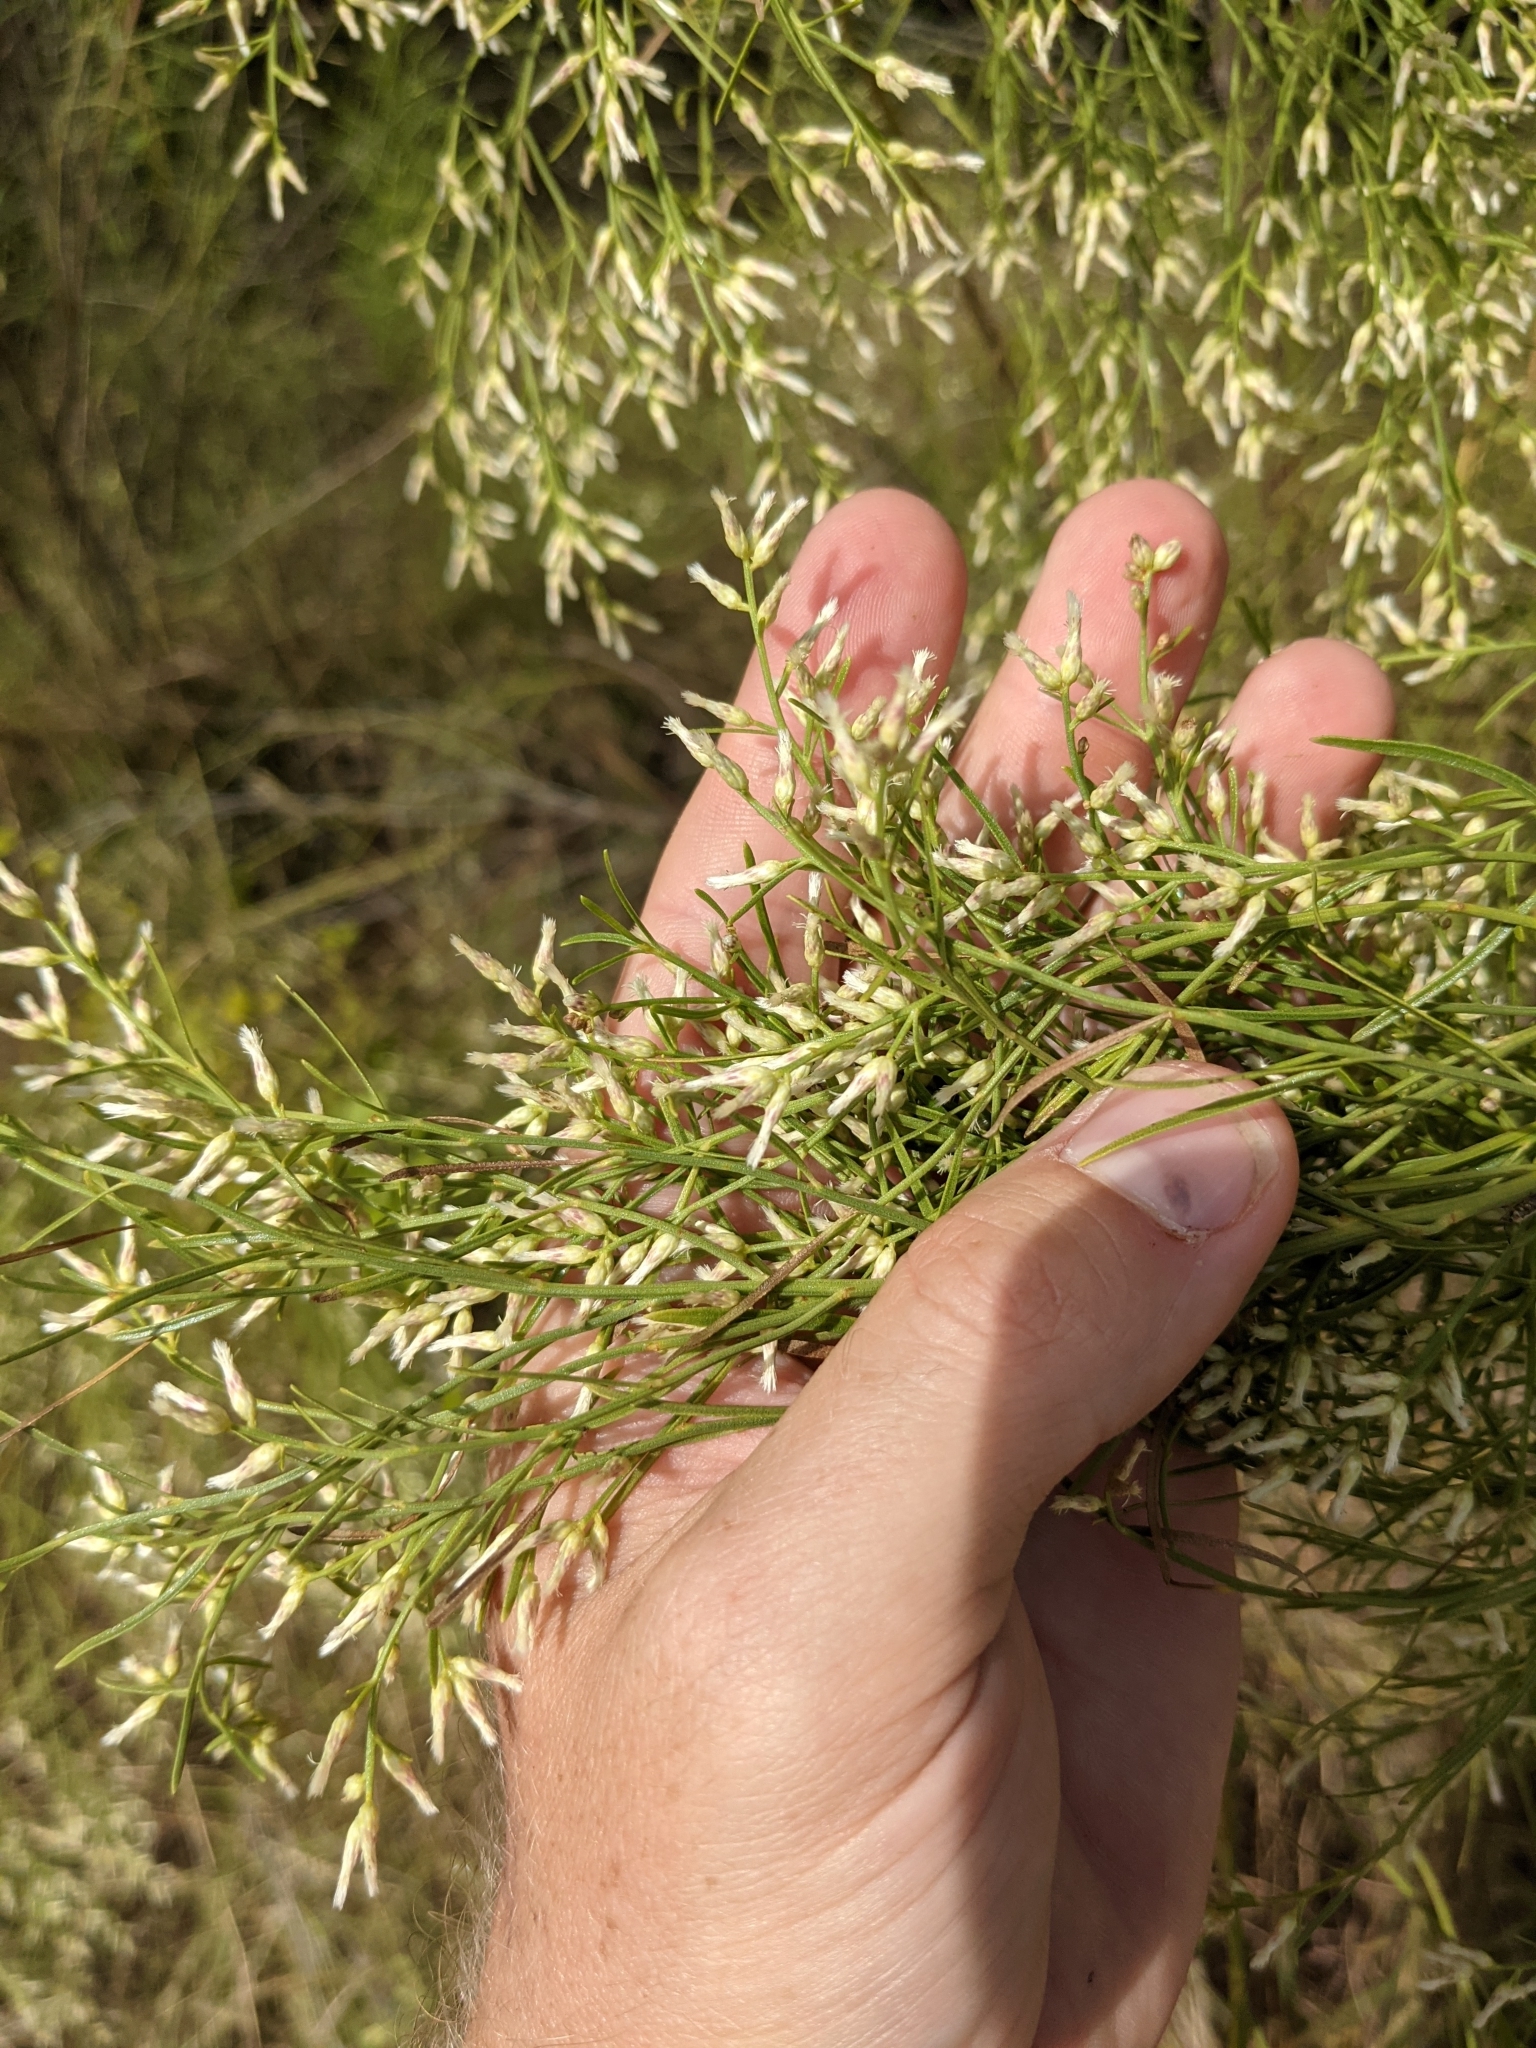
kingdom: Plantae
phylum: Tracheophyta
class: Magnoliopsida
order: Asterales
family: Asteraceae
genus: Baccharis
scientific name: Baccharis neglecta
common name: Roosevelt-weed
